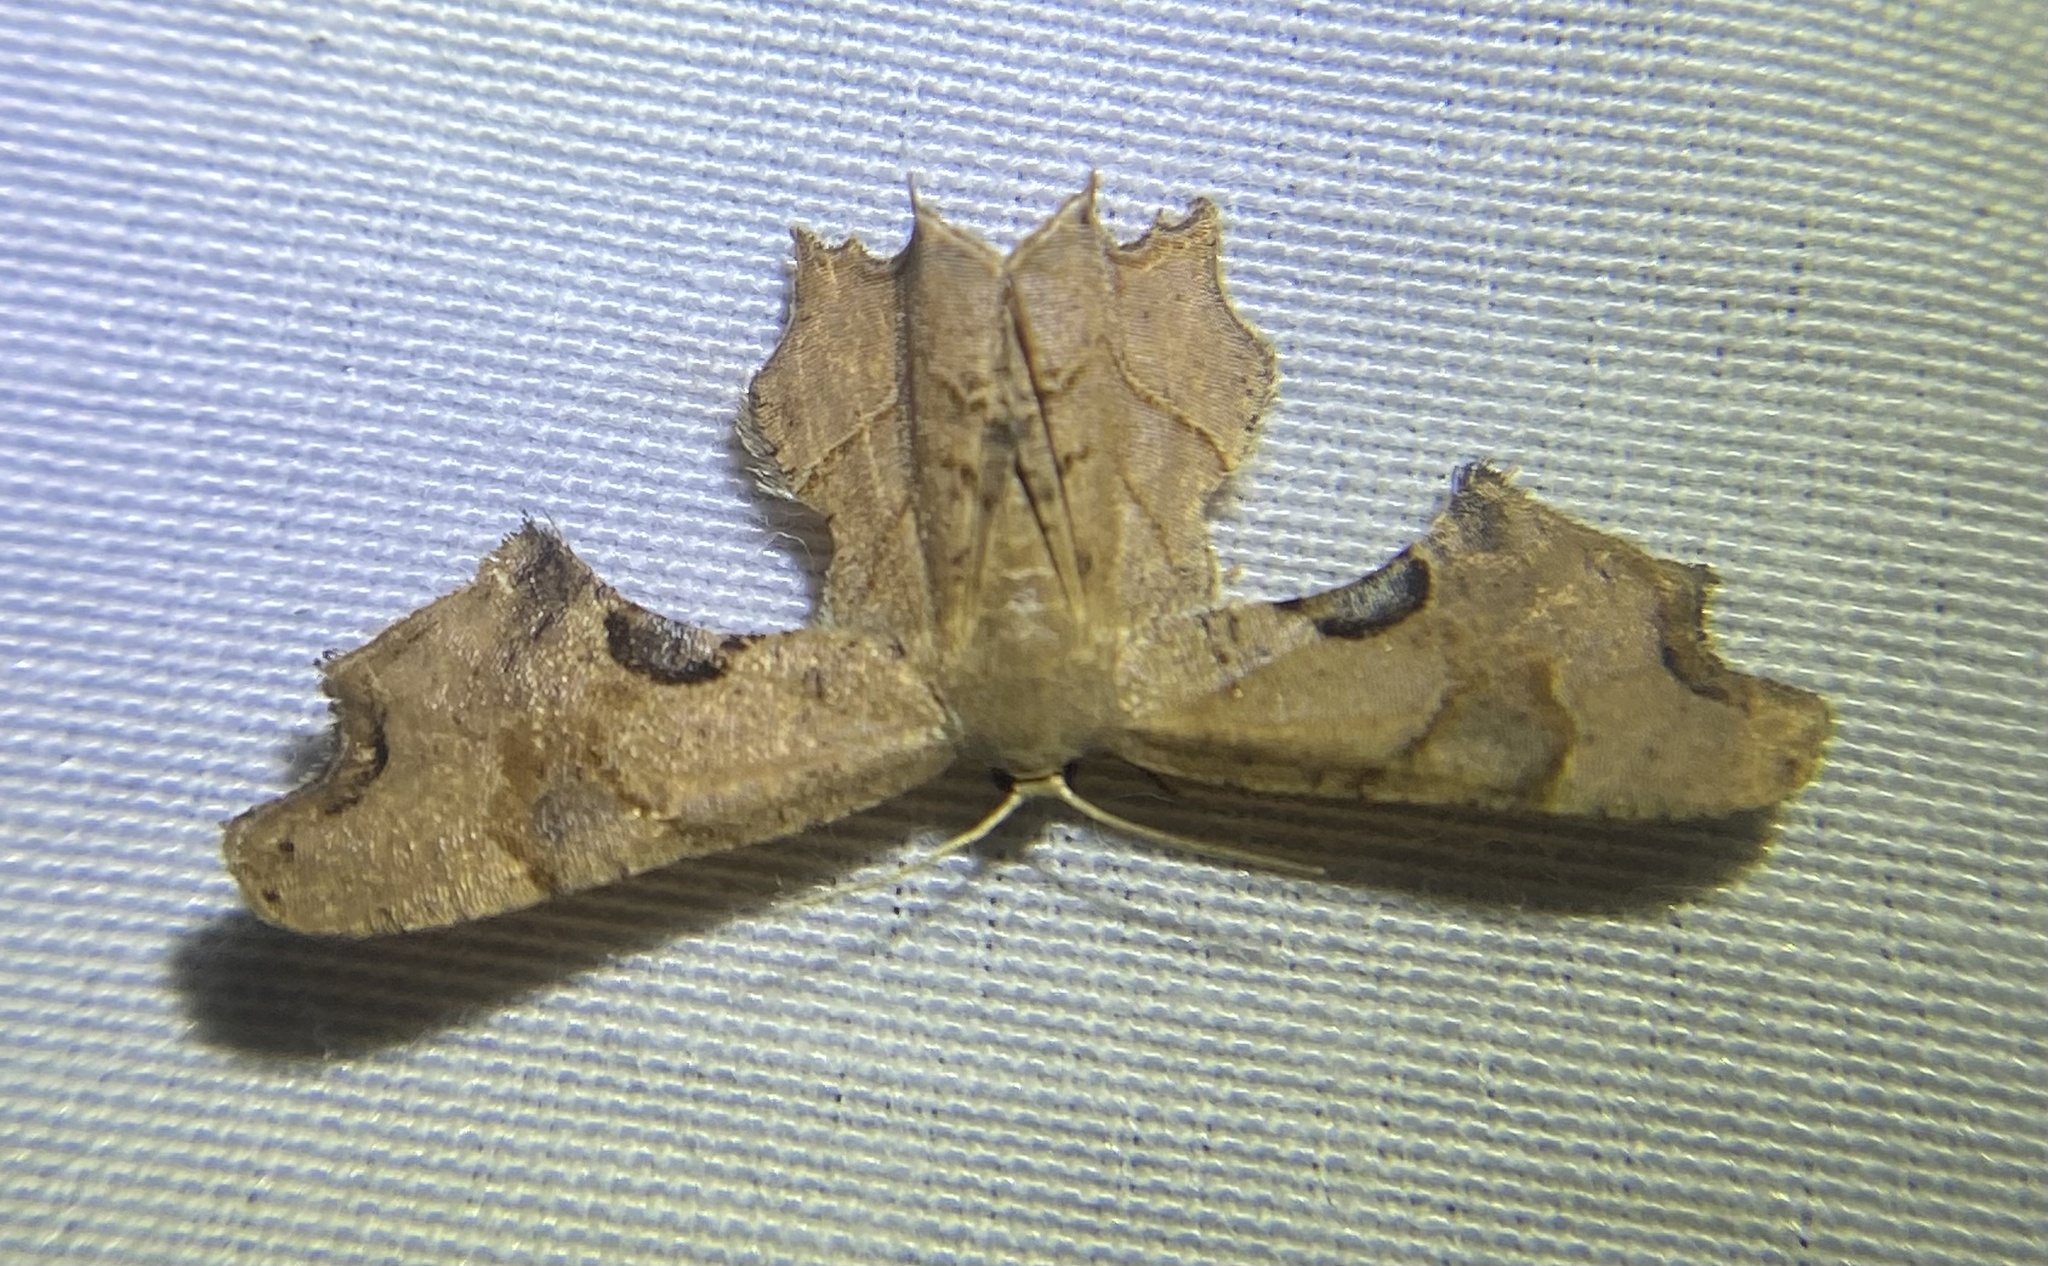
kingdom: Animalia
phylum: Arthropoda
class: Insecta
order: Lepidoptera
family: Uraniidae
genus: Epiplema
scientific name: Epiplema Calledapteryx dryopterata
